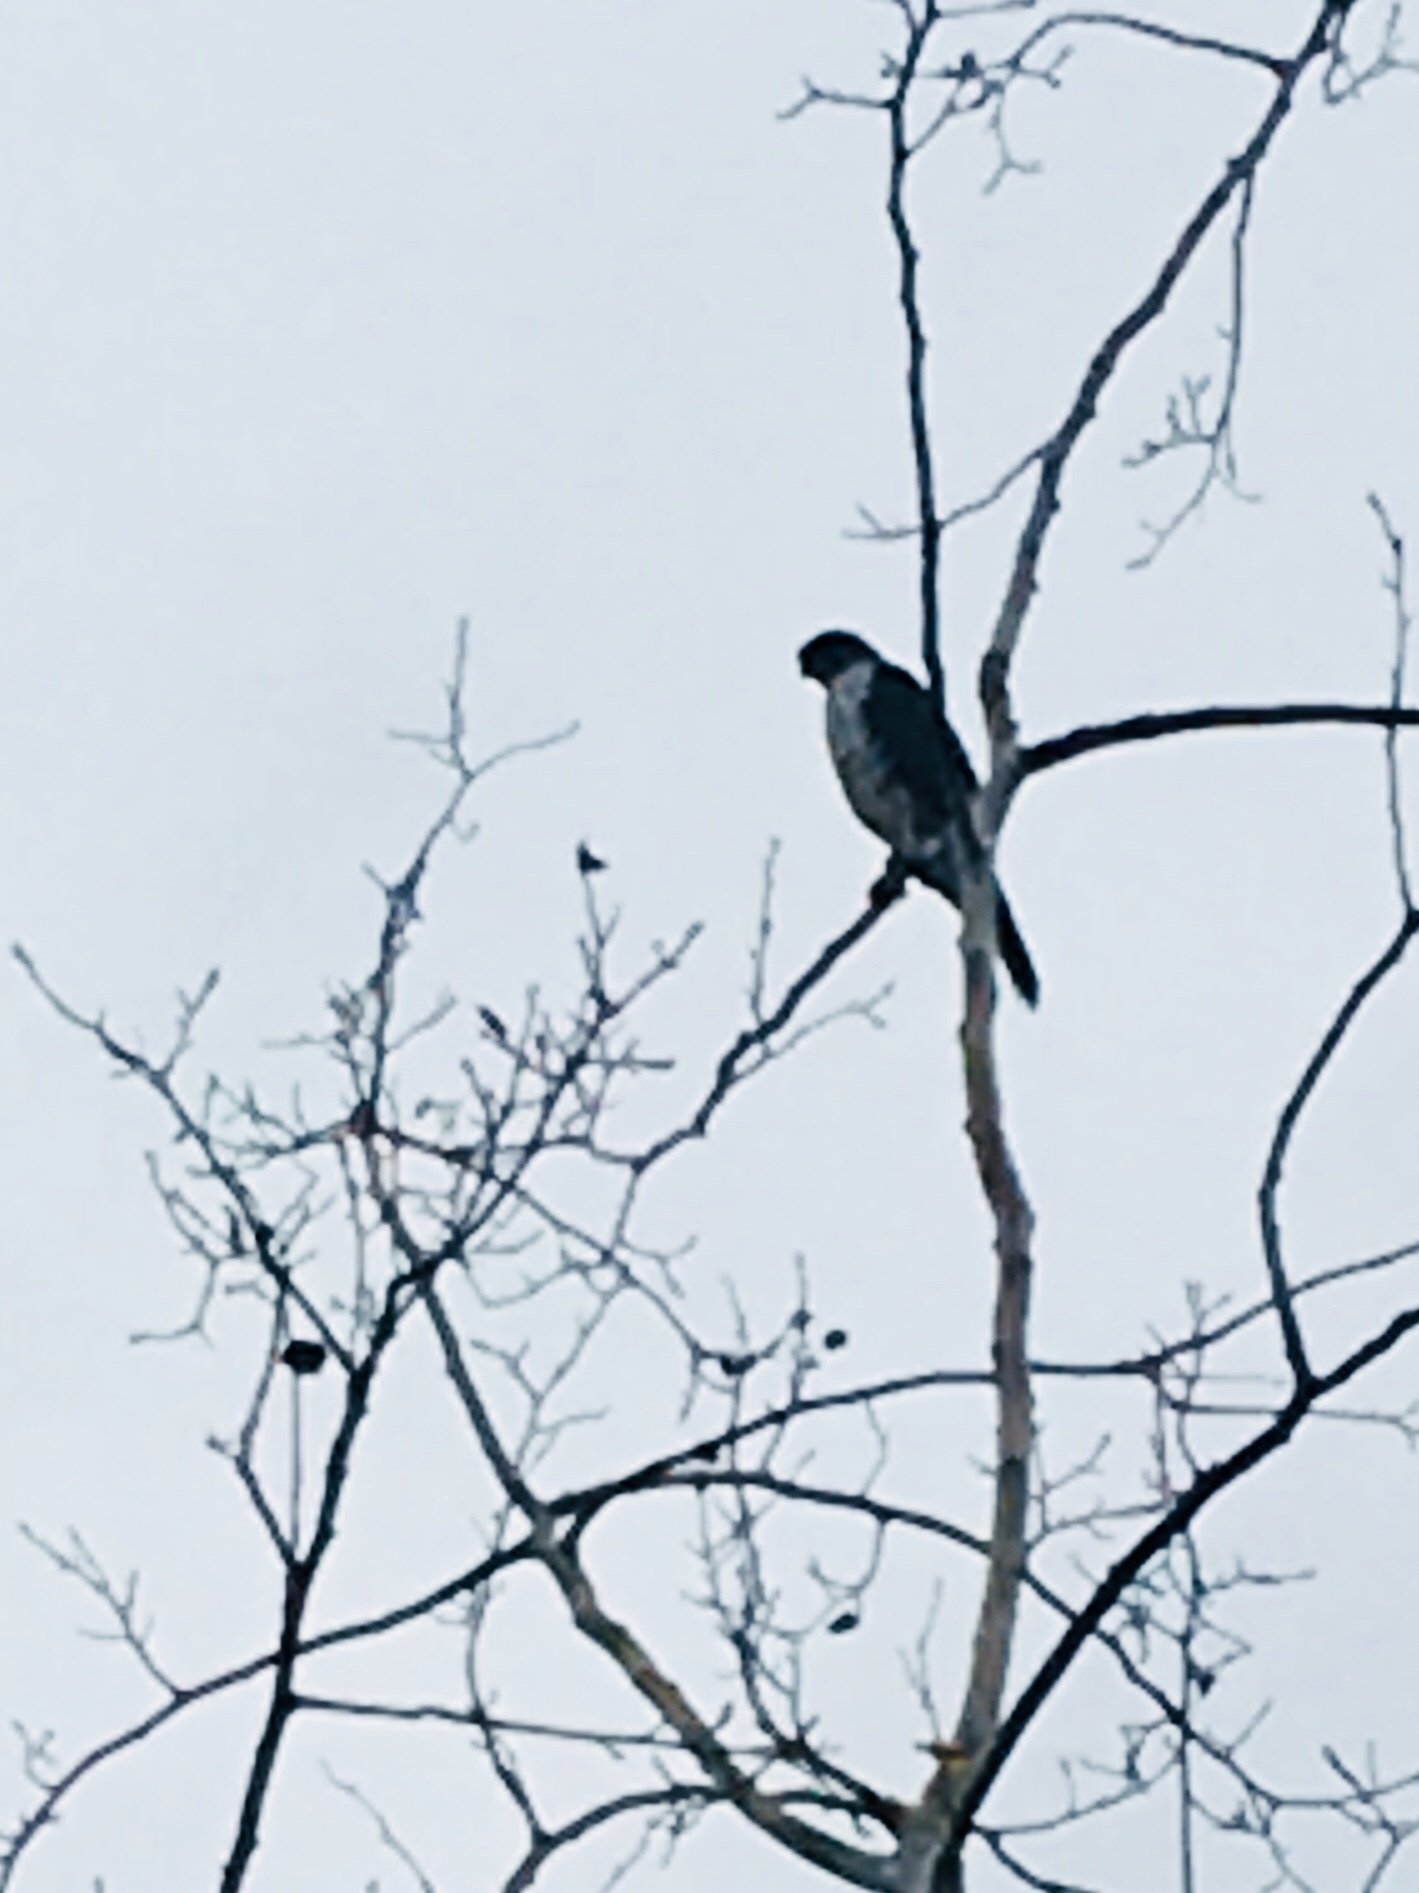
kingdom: Animalia
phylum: Chordata
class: Aves
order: Accipitriformes
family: Accipitridae
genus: Accipiter
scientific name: Accipiter cooperii
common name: Cooper's hawk
